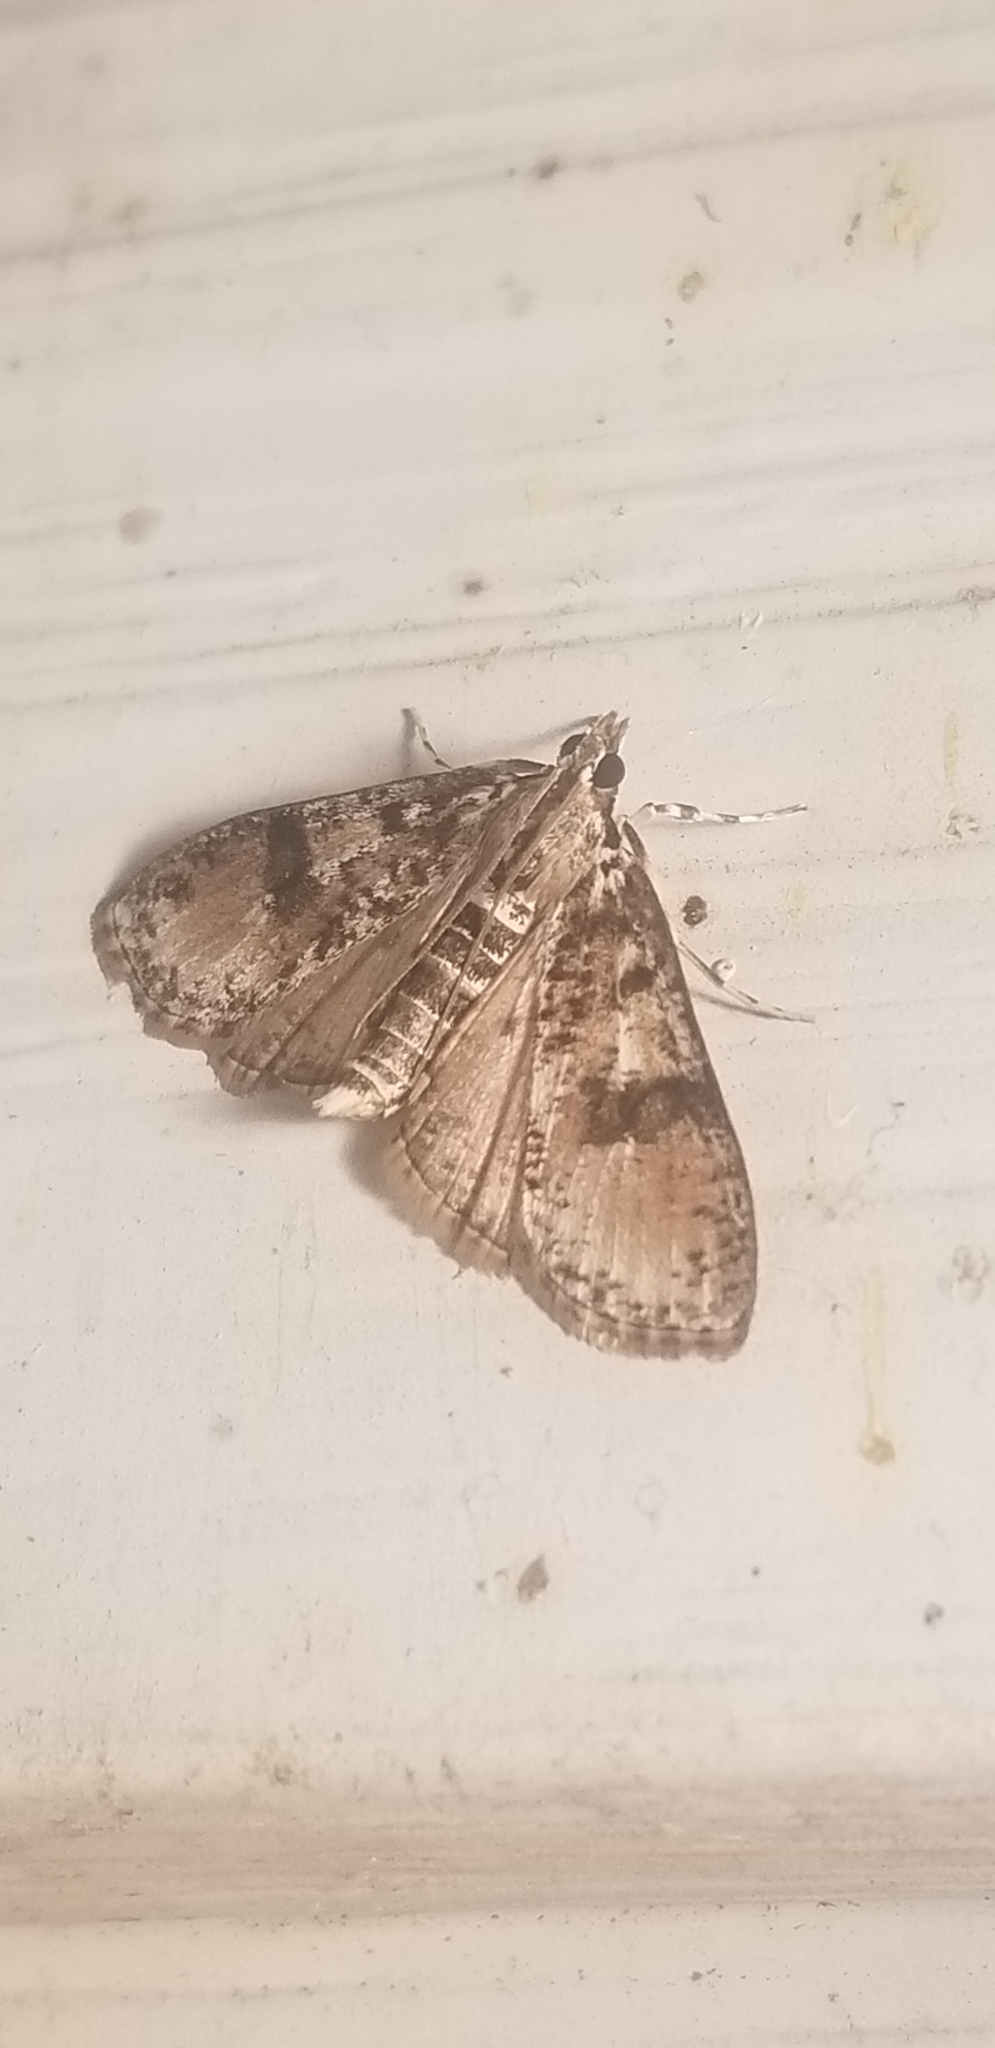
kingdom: Animalia
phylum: Arthropoda
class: Insecta
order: Lepidoptera
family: Crambidae
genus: Palpita
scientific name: Palpita magniferalis
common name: Splendid palpita moth
